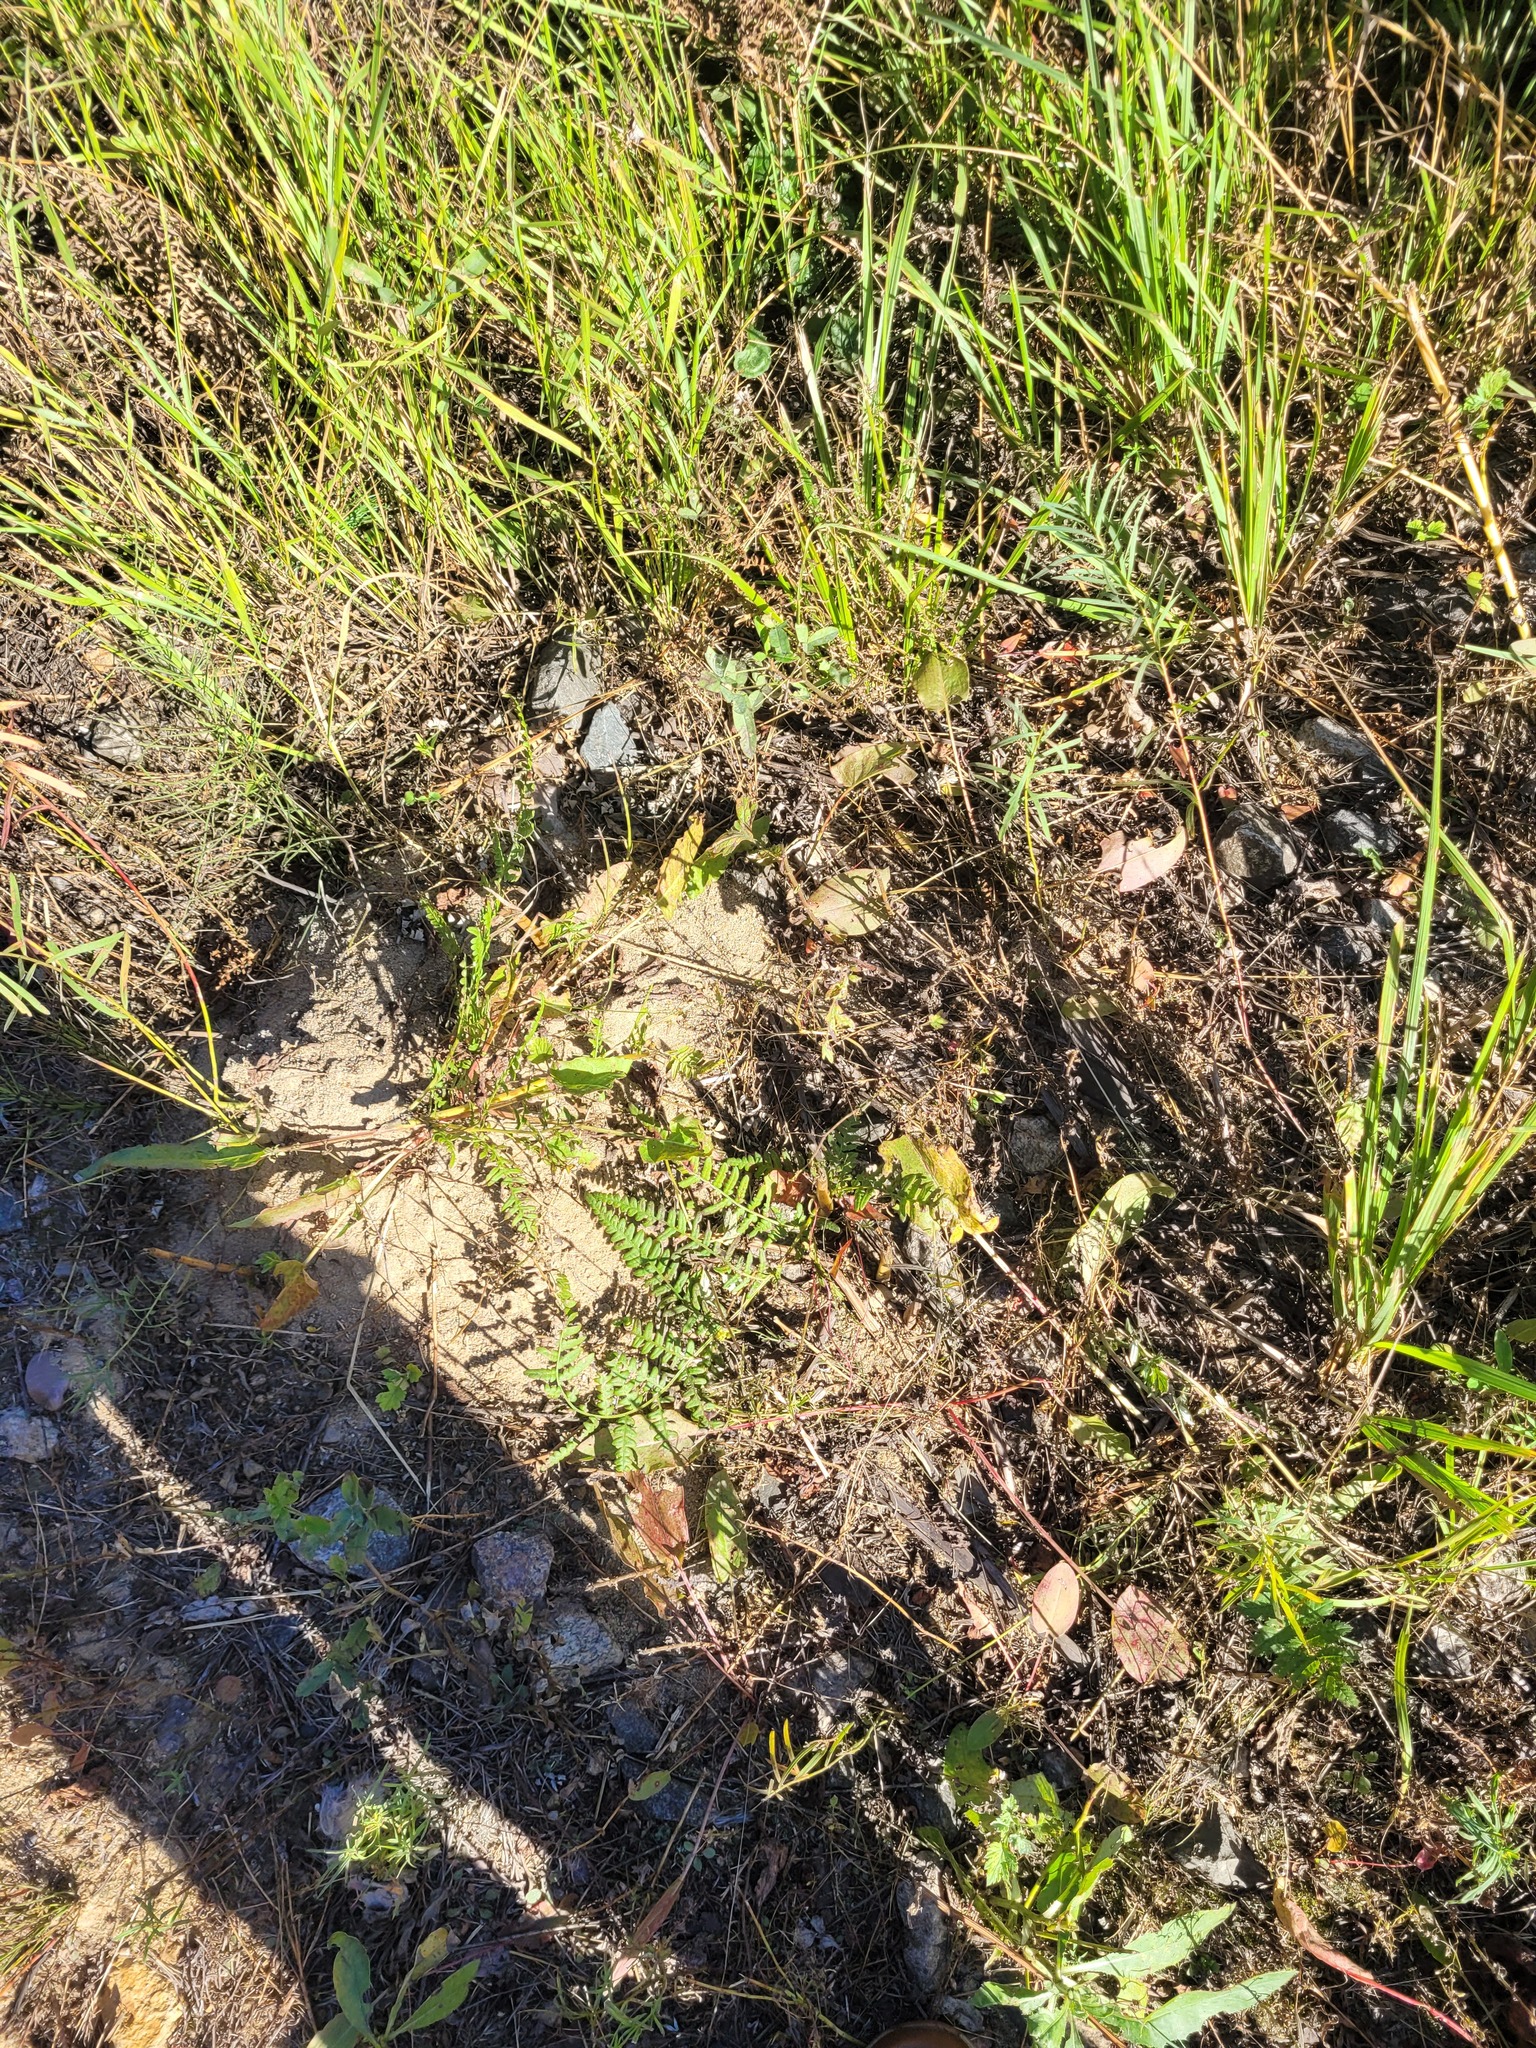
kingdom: Plantae
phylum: Tracheophyta
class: Polypodiopsida
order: Polypodiales
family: Dennstaedtiaceae
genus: Pteridium
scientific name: Pteridium aquilinum
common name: Bracken
